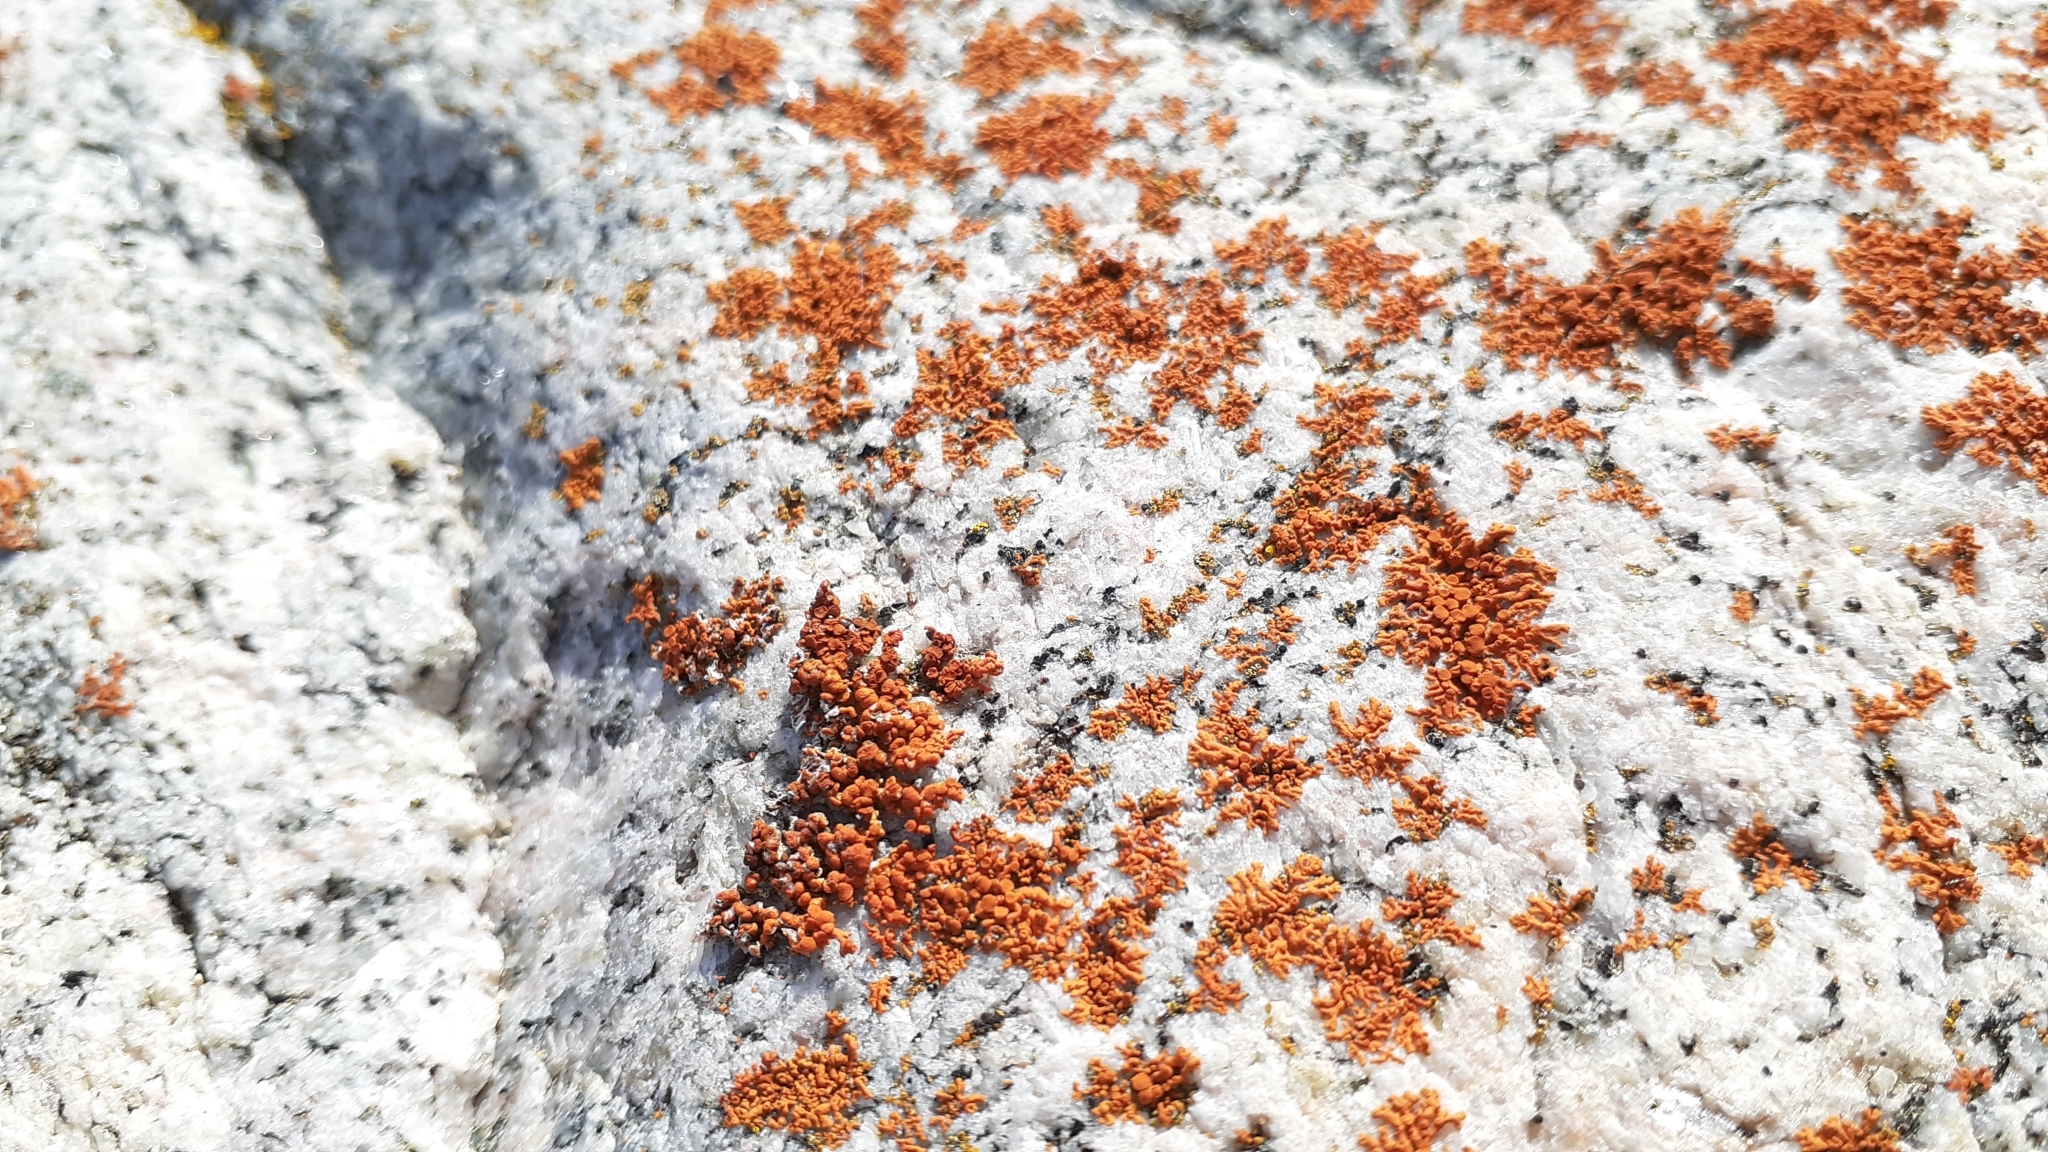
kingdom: Fungi
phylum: Ascomycota
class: Lecanoromycetes
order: Teloschistales
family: Teloschistaceae
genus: Xanthoria
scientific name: Xanthoria elegans
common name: Elegant sunburst lichen
